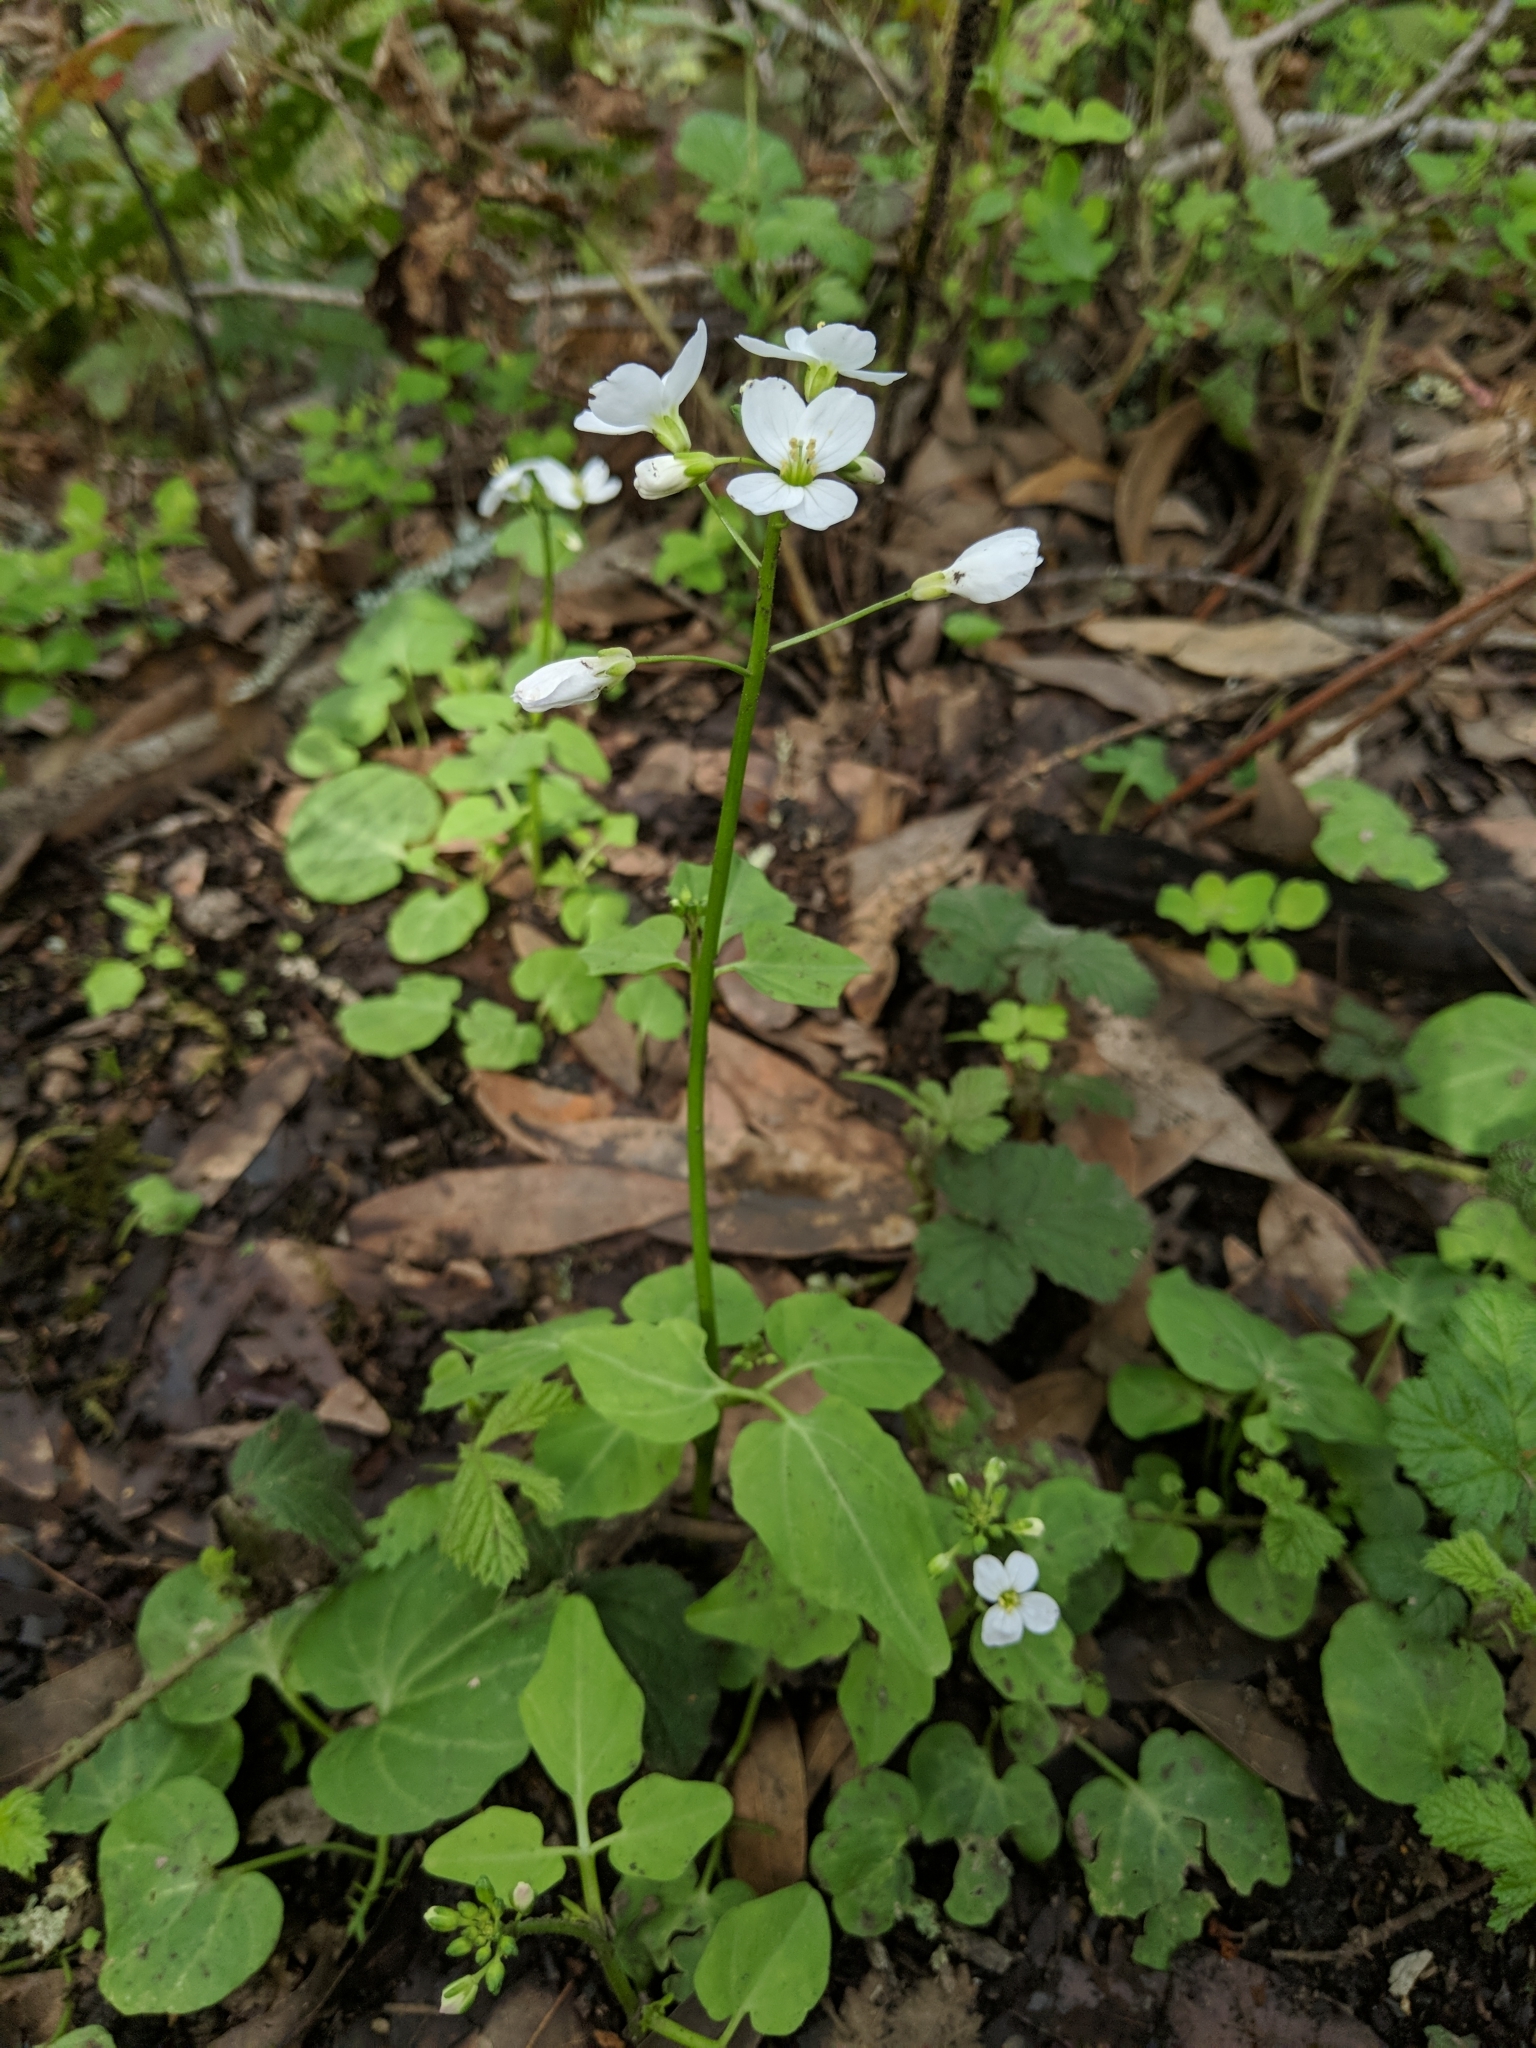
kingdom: Plantae
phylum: Tracheophyta
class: Magnoliopsida
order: Brassicales
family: Brassicaceae
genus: Cardamine
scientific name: Cardamine californica
